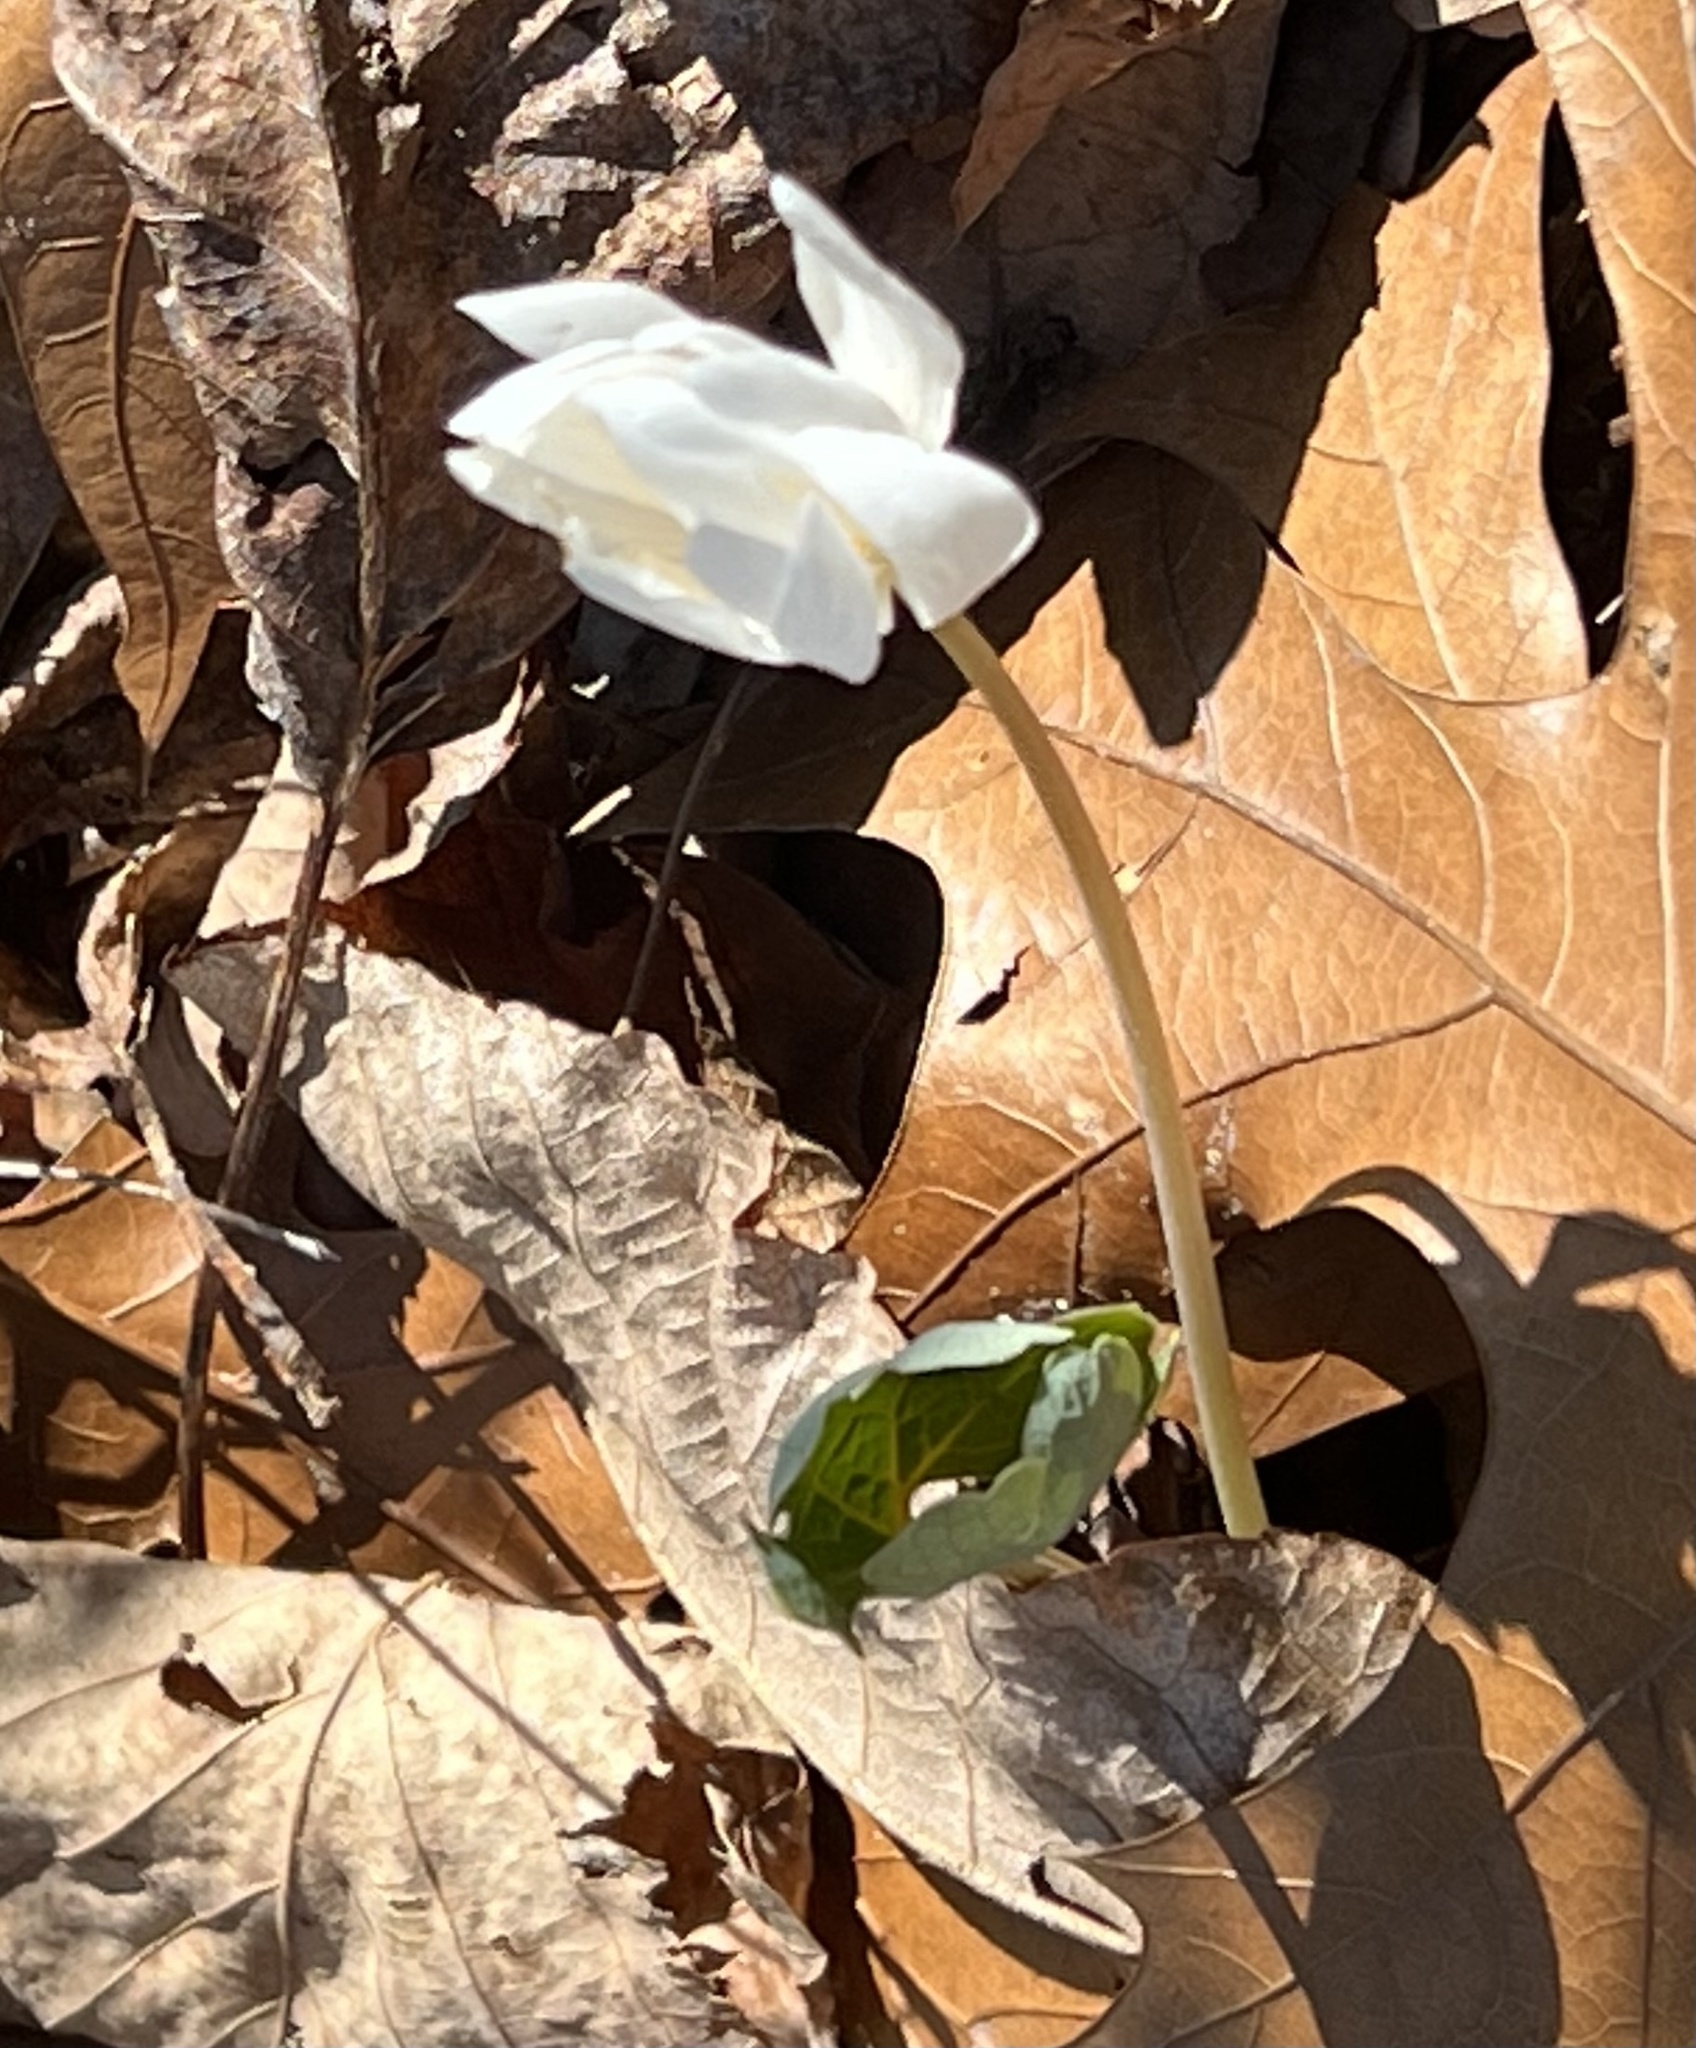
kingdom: Plantae
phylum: Tracheophyta
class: Magnoliopsida
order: Ranunculales
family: Papaveraceae
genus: Sanguinaria
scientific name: Sanguinaria canadensis
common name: Bloodroot
